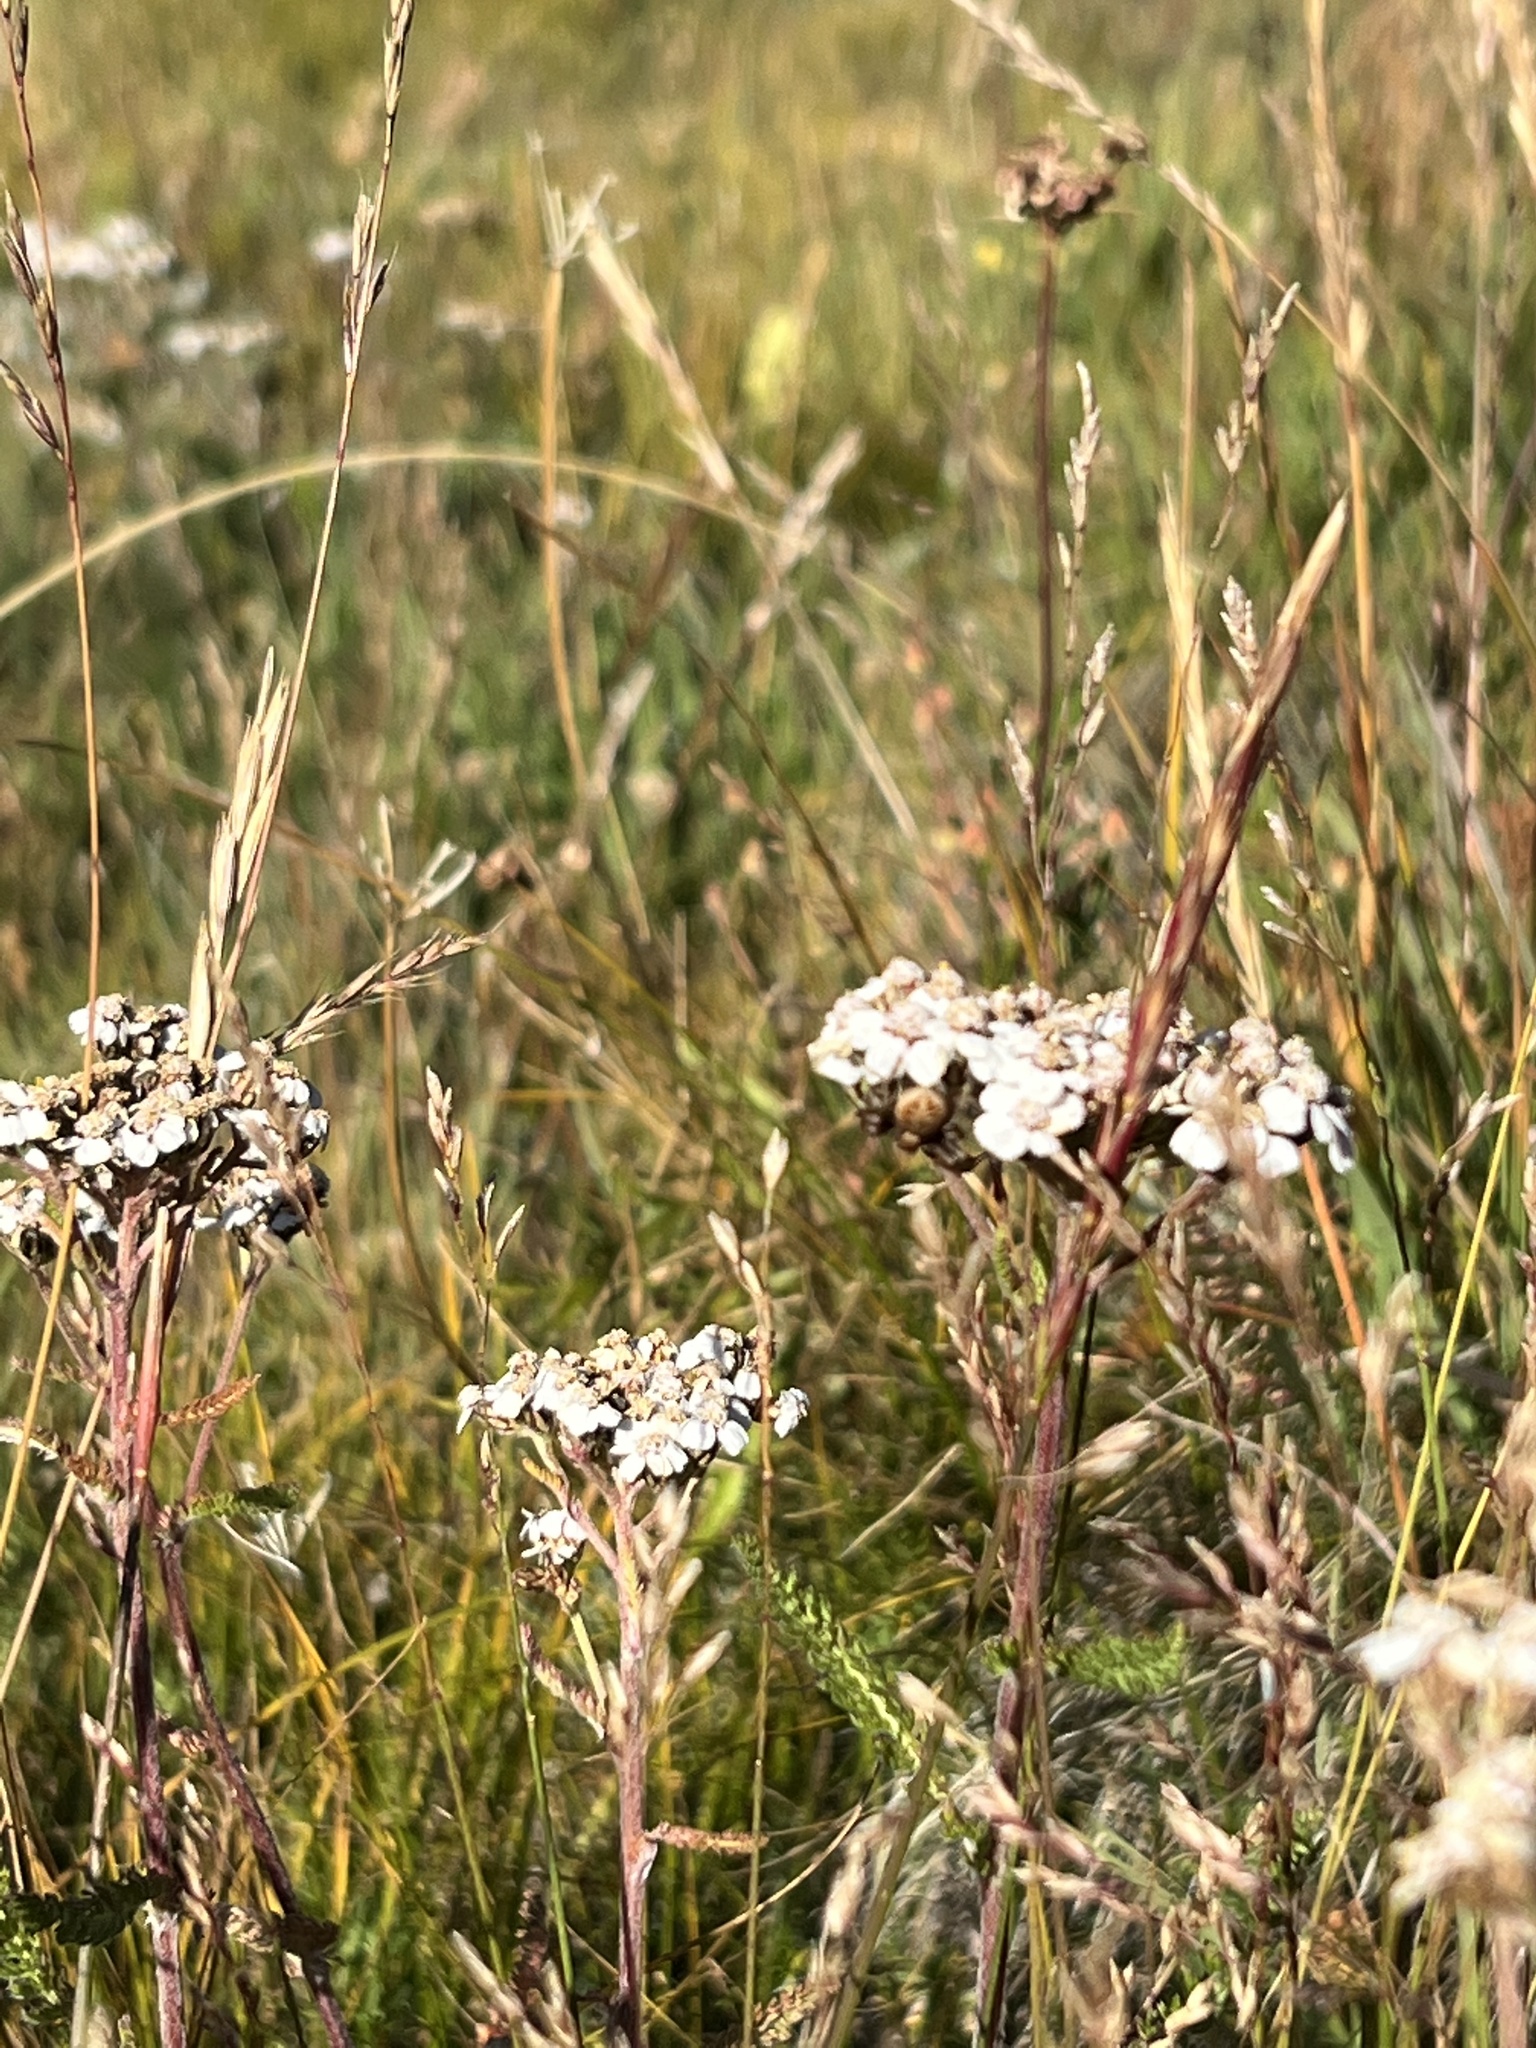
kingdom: Plantae
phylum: Tracheophyta
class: Magnoliopsida
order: Asterales
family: Asteraceae
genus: Achillea
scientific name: Achillea millefolium
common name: Yarrow
